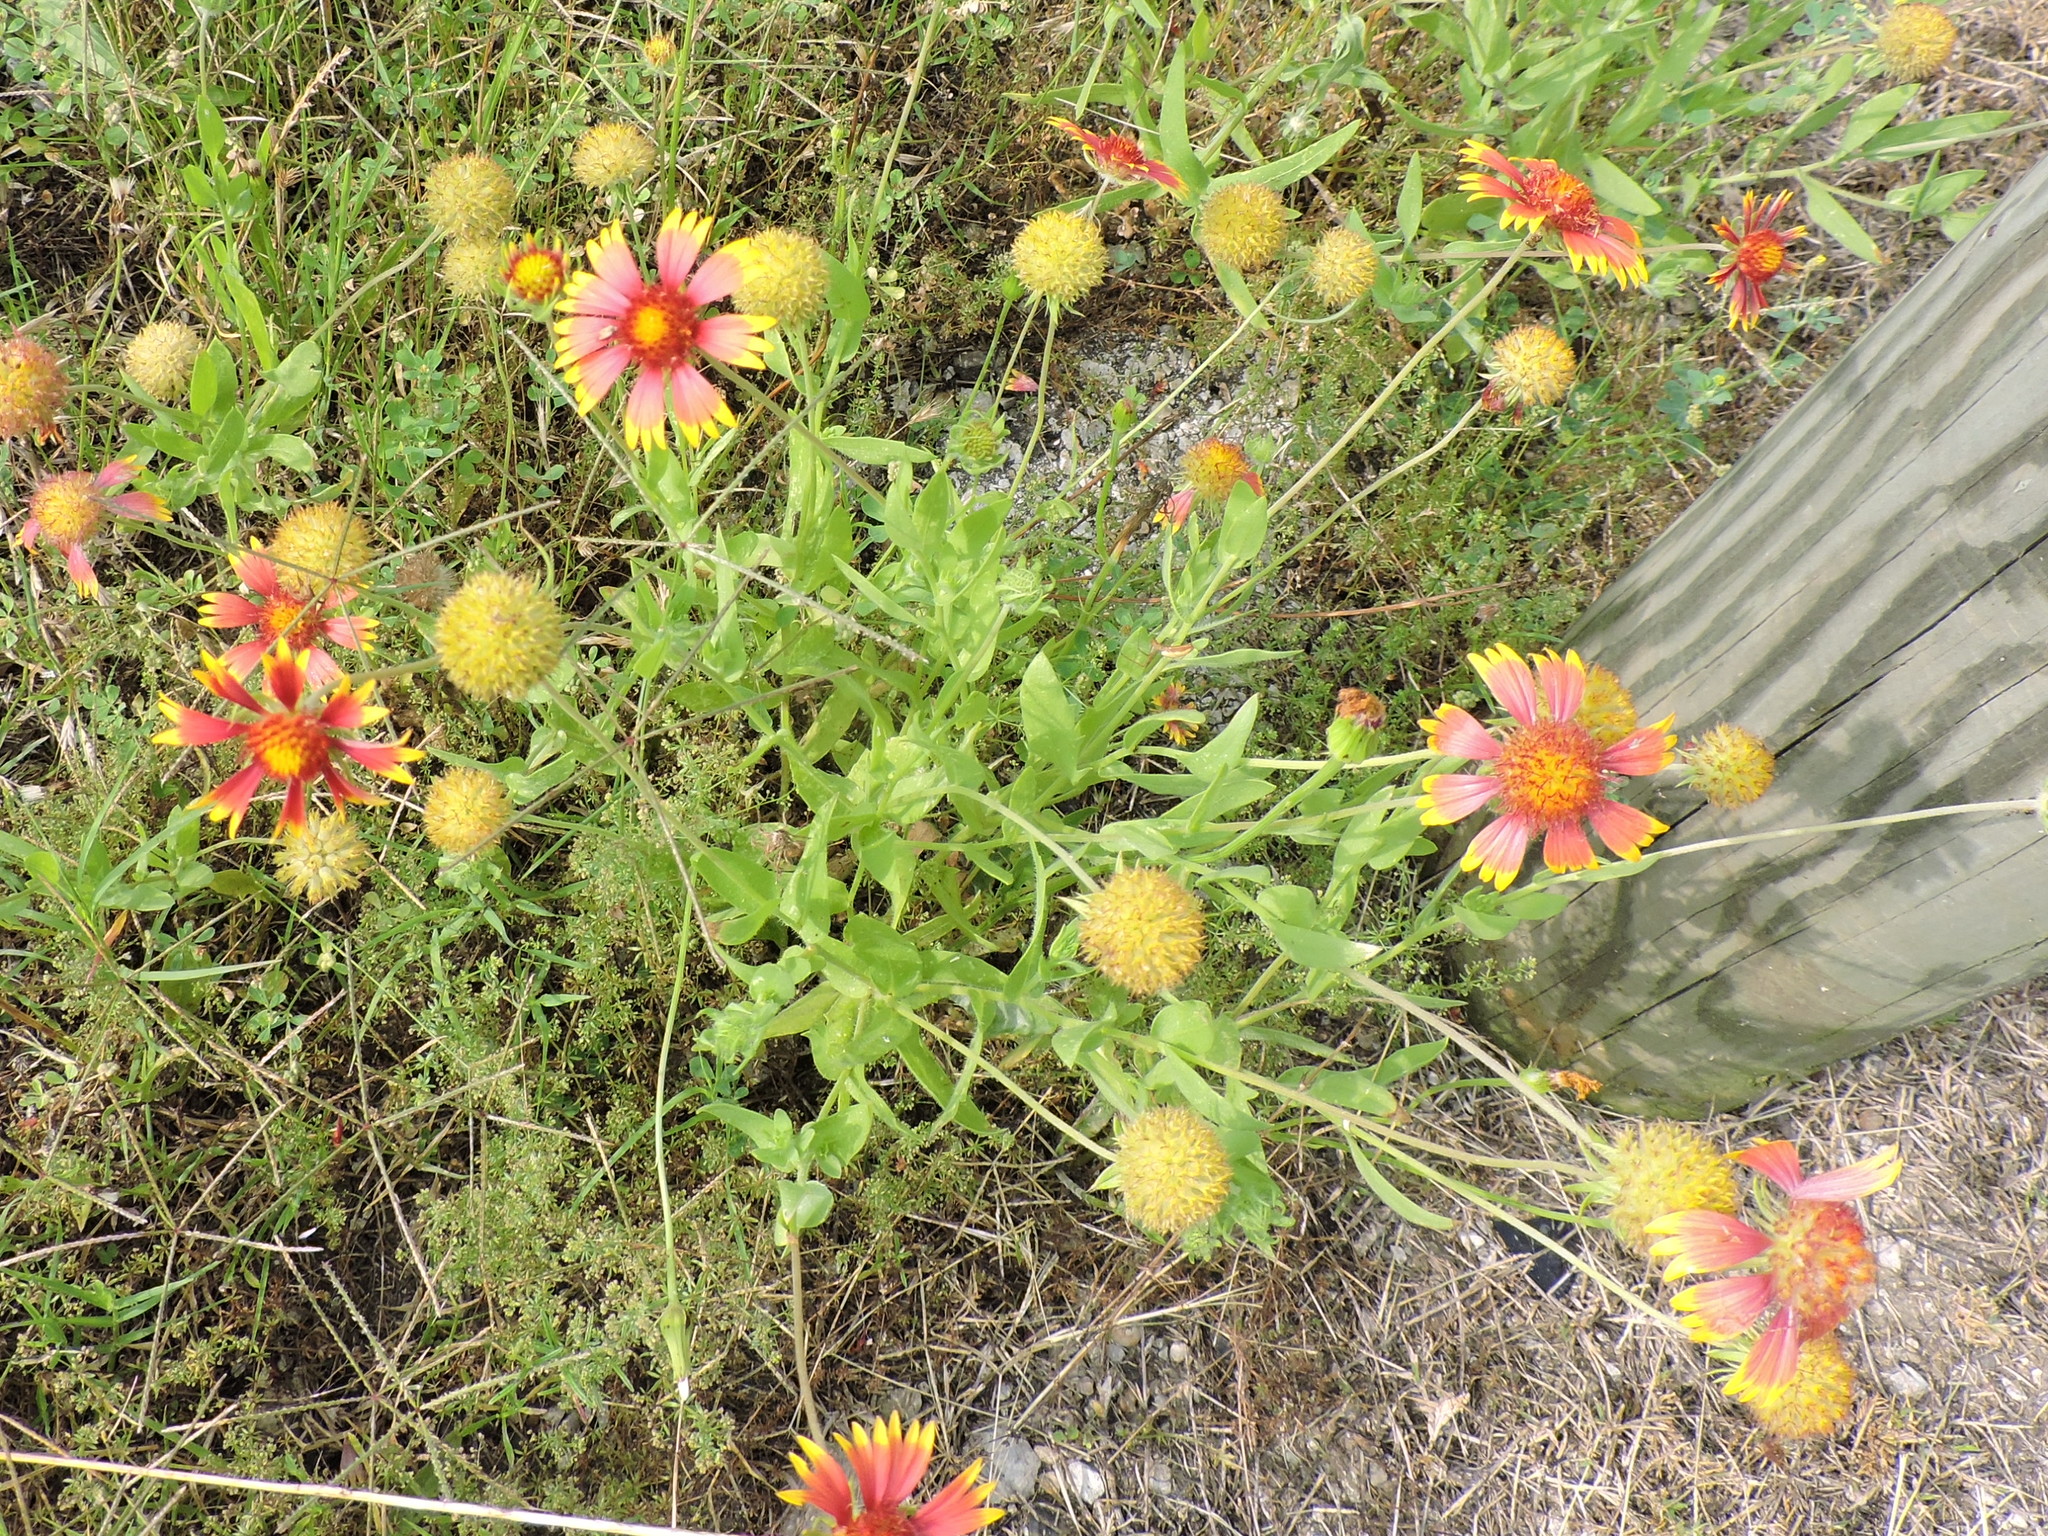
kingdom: Plantae
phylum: Tracheophyta
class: Magnoliopsida
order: Asterales
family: Asteraceae
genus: Gaillardia
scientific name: Gaillardia pulchella
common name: Firewheel
